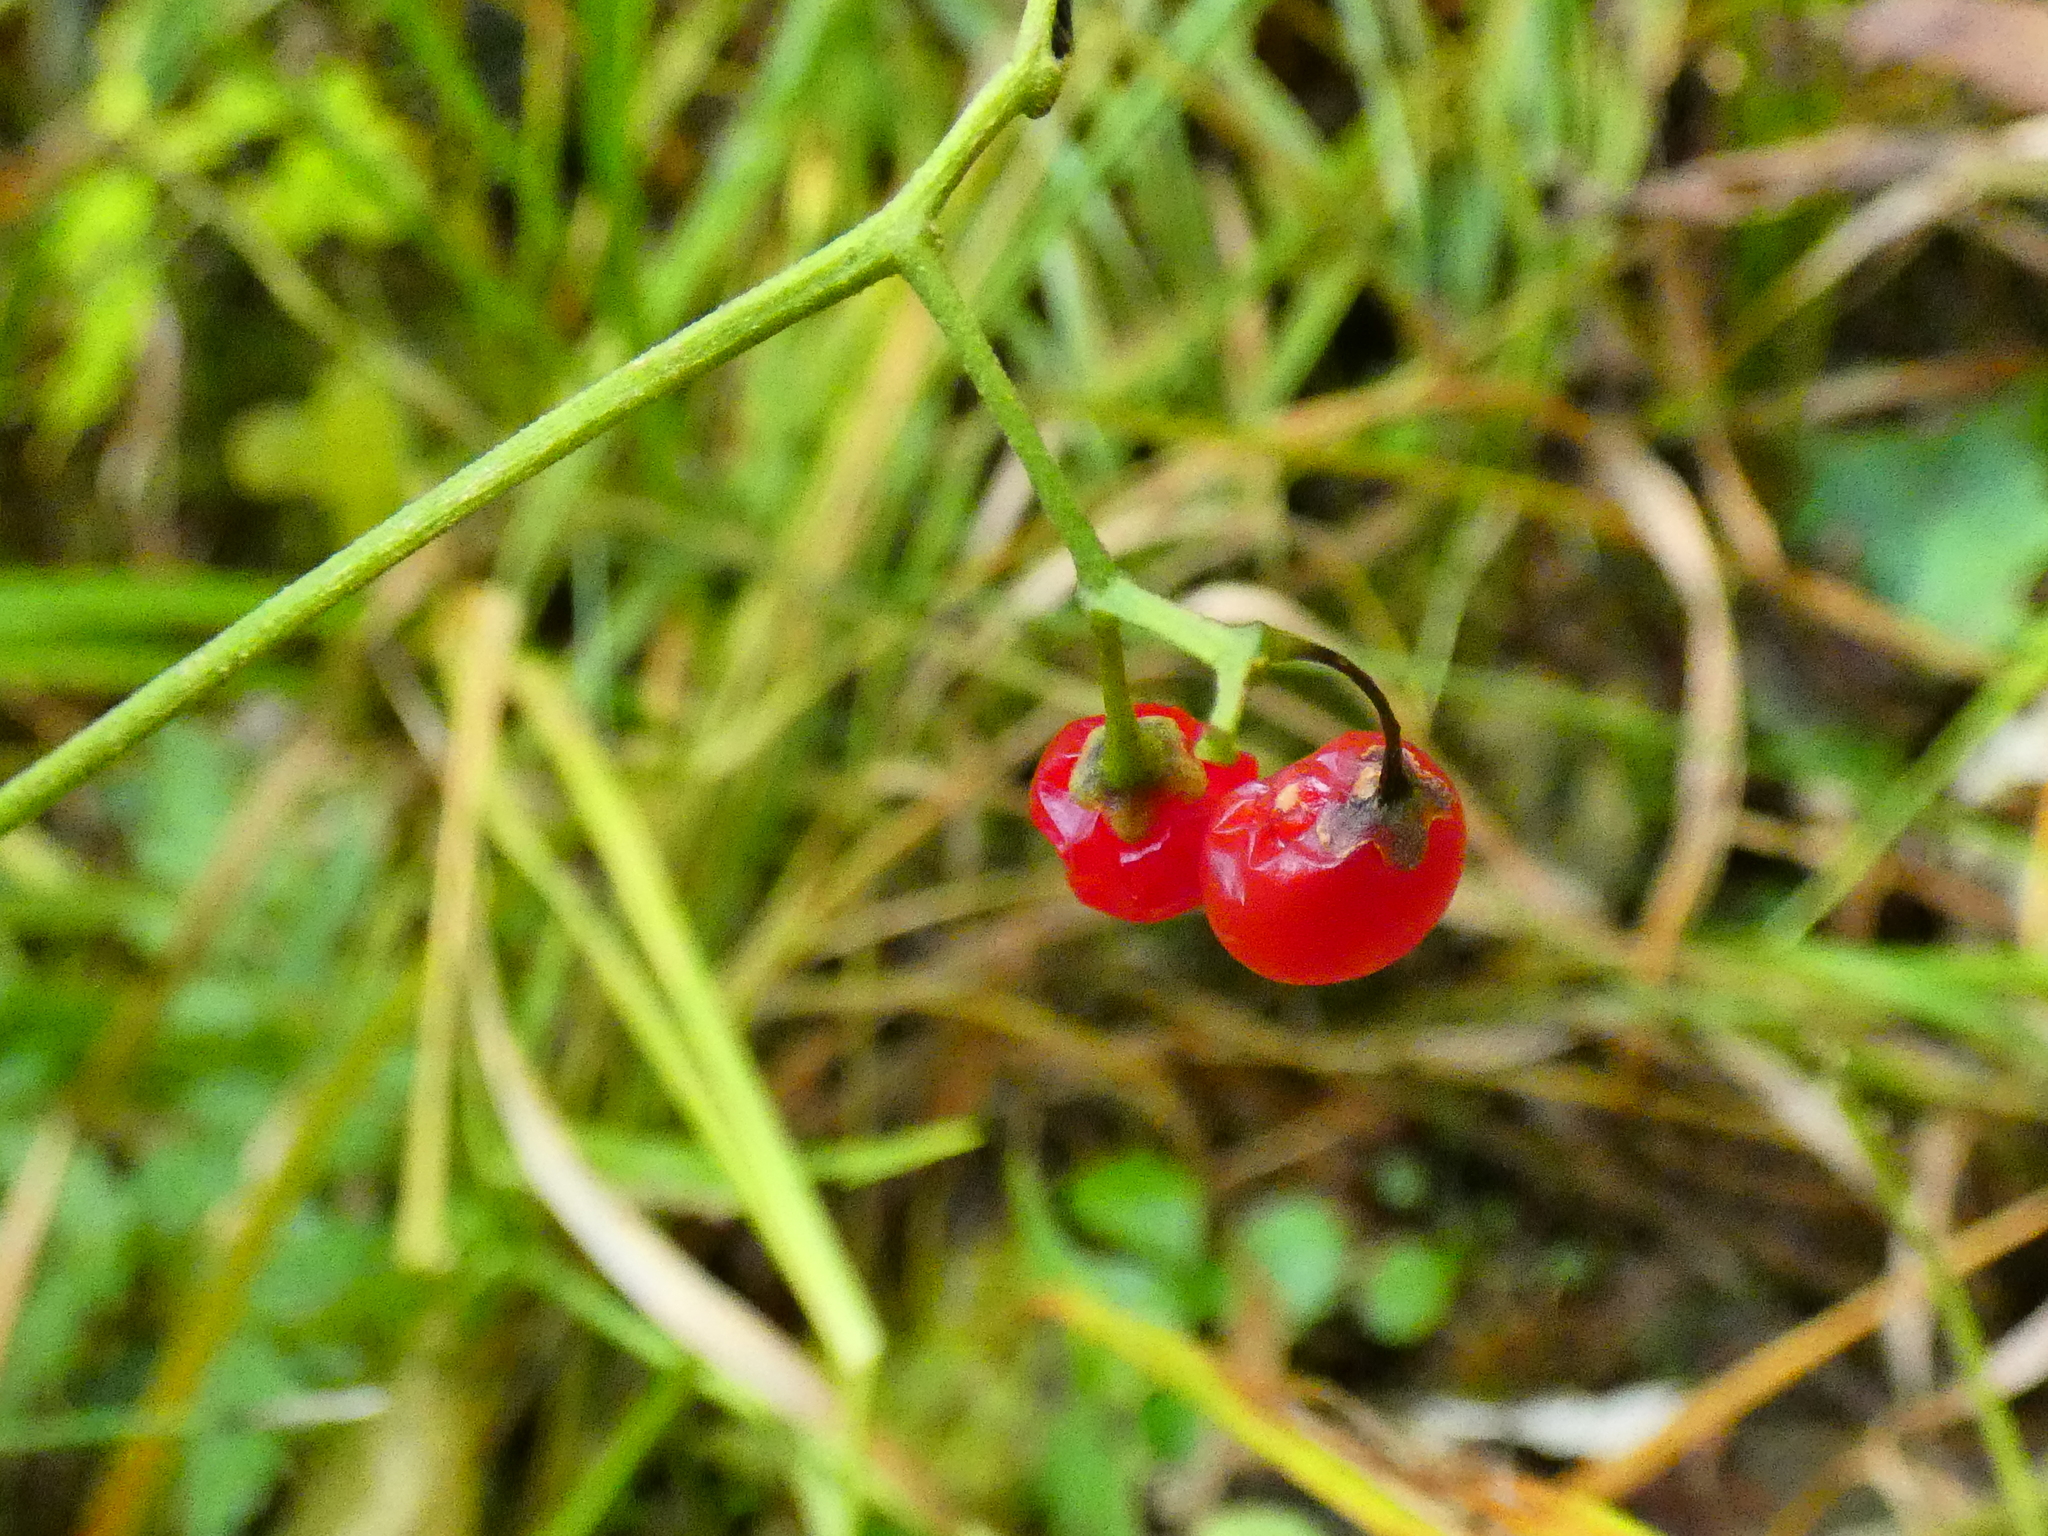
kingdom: Plantae
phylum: Tracheophyta
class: Magnoliopsida
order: Solanales
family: Solanaceae
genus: Solanum
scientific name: Solanum dulcamara
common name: Climbing nightshade
